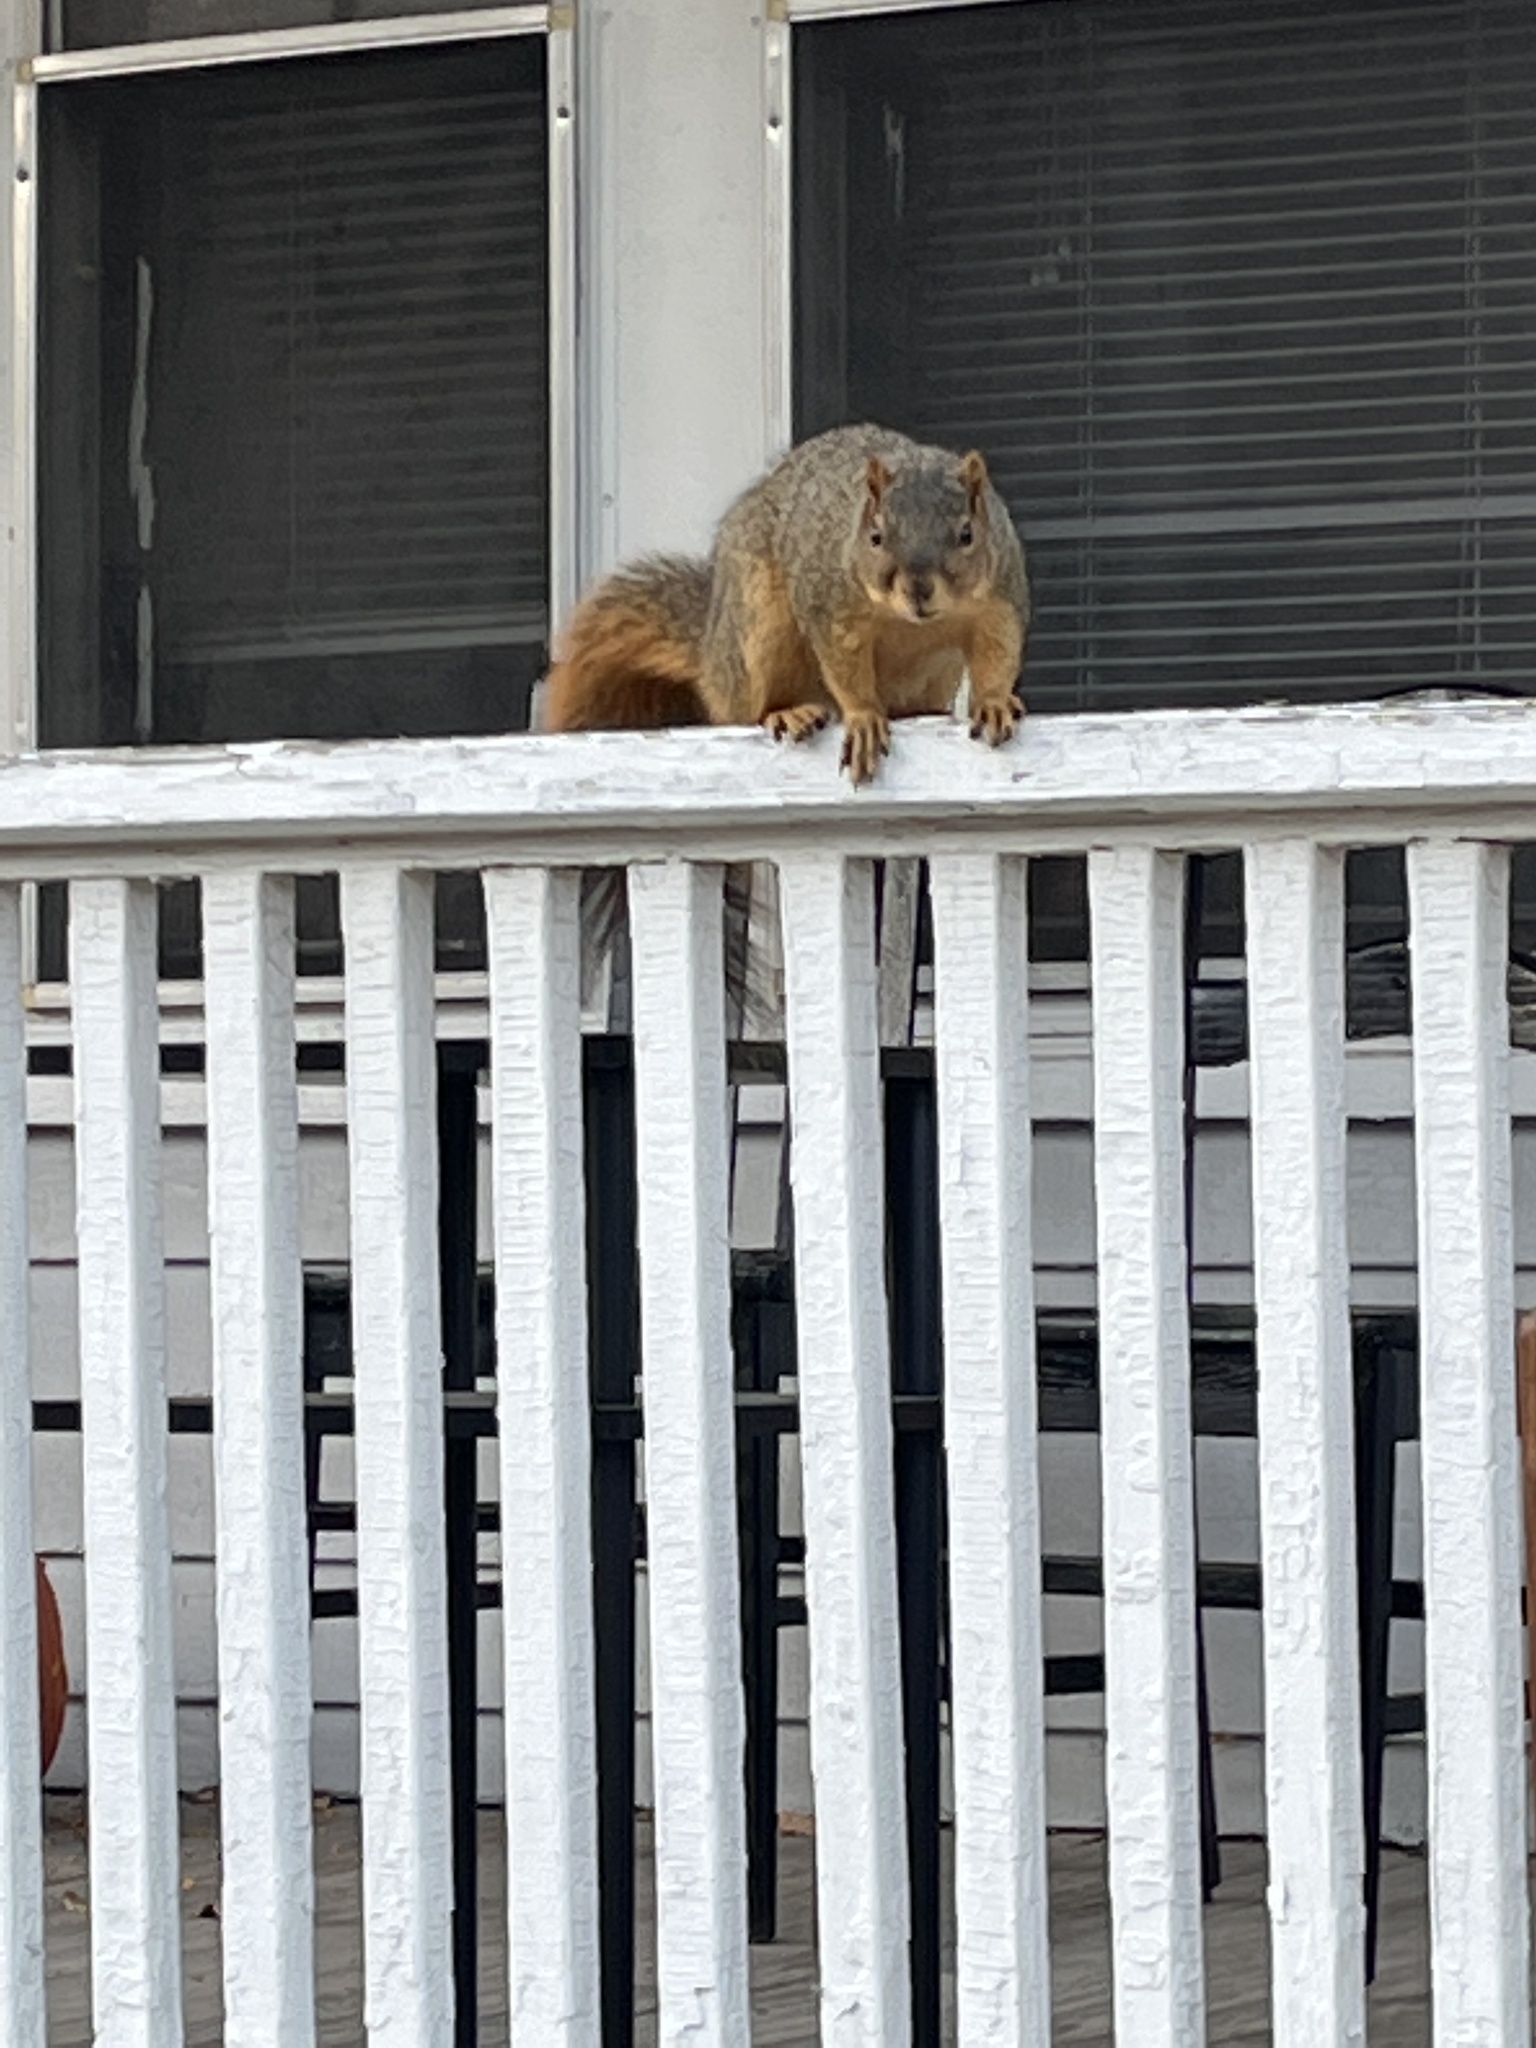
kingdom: Animalia
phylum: Chordata
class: Mammalia
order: Rodentia
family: Sciuridae
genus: Sciurus
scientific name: Sciurus niger
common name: Fox squirrel
